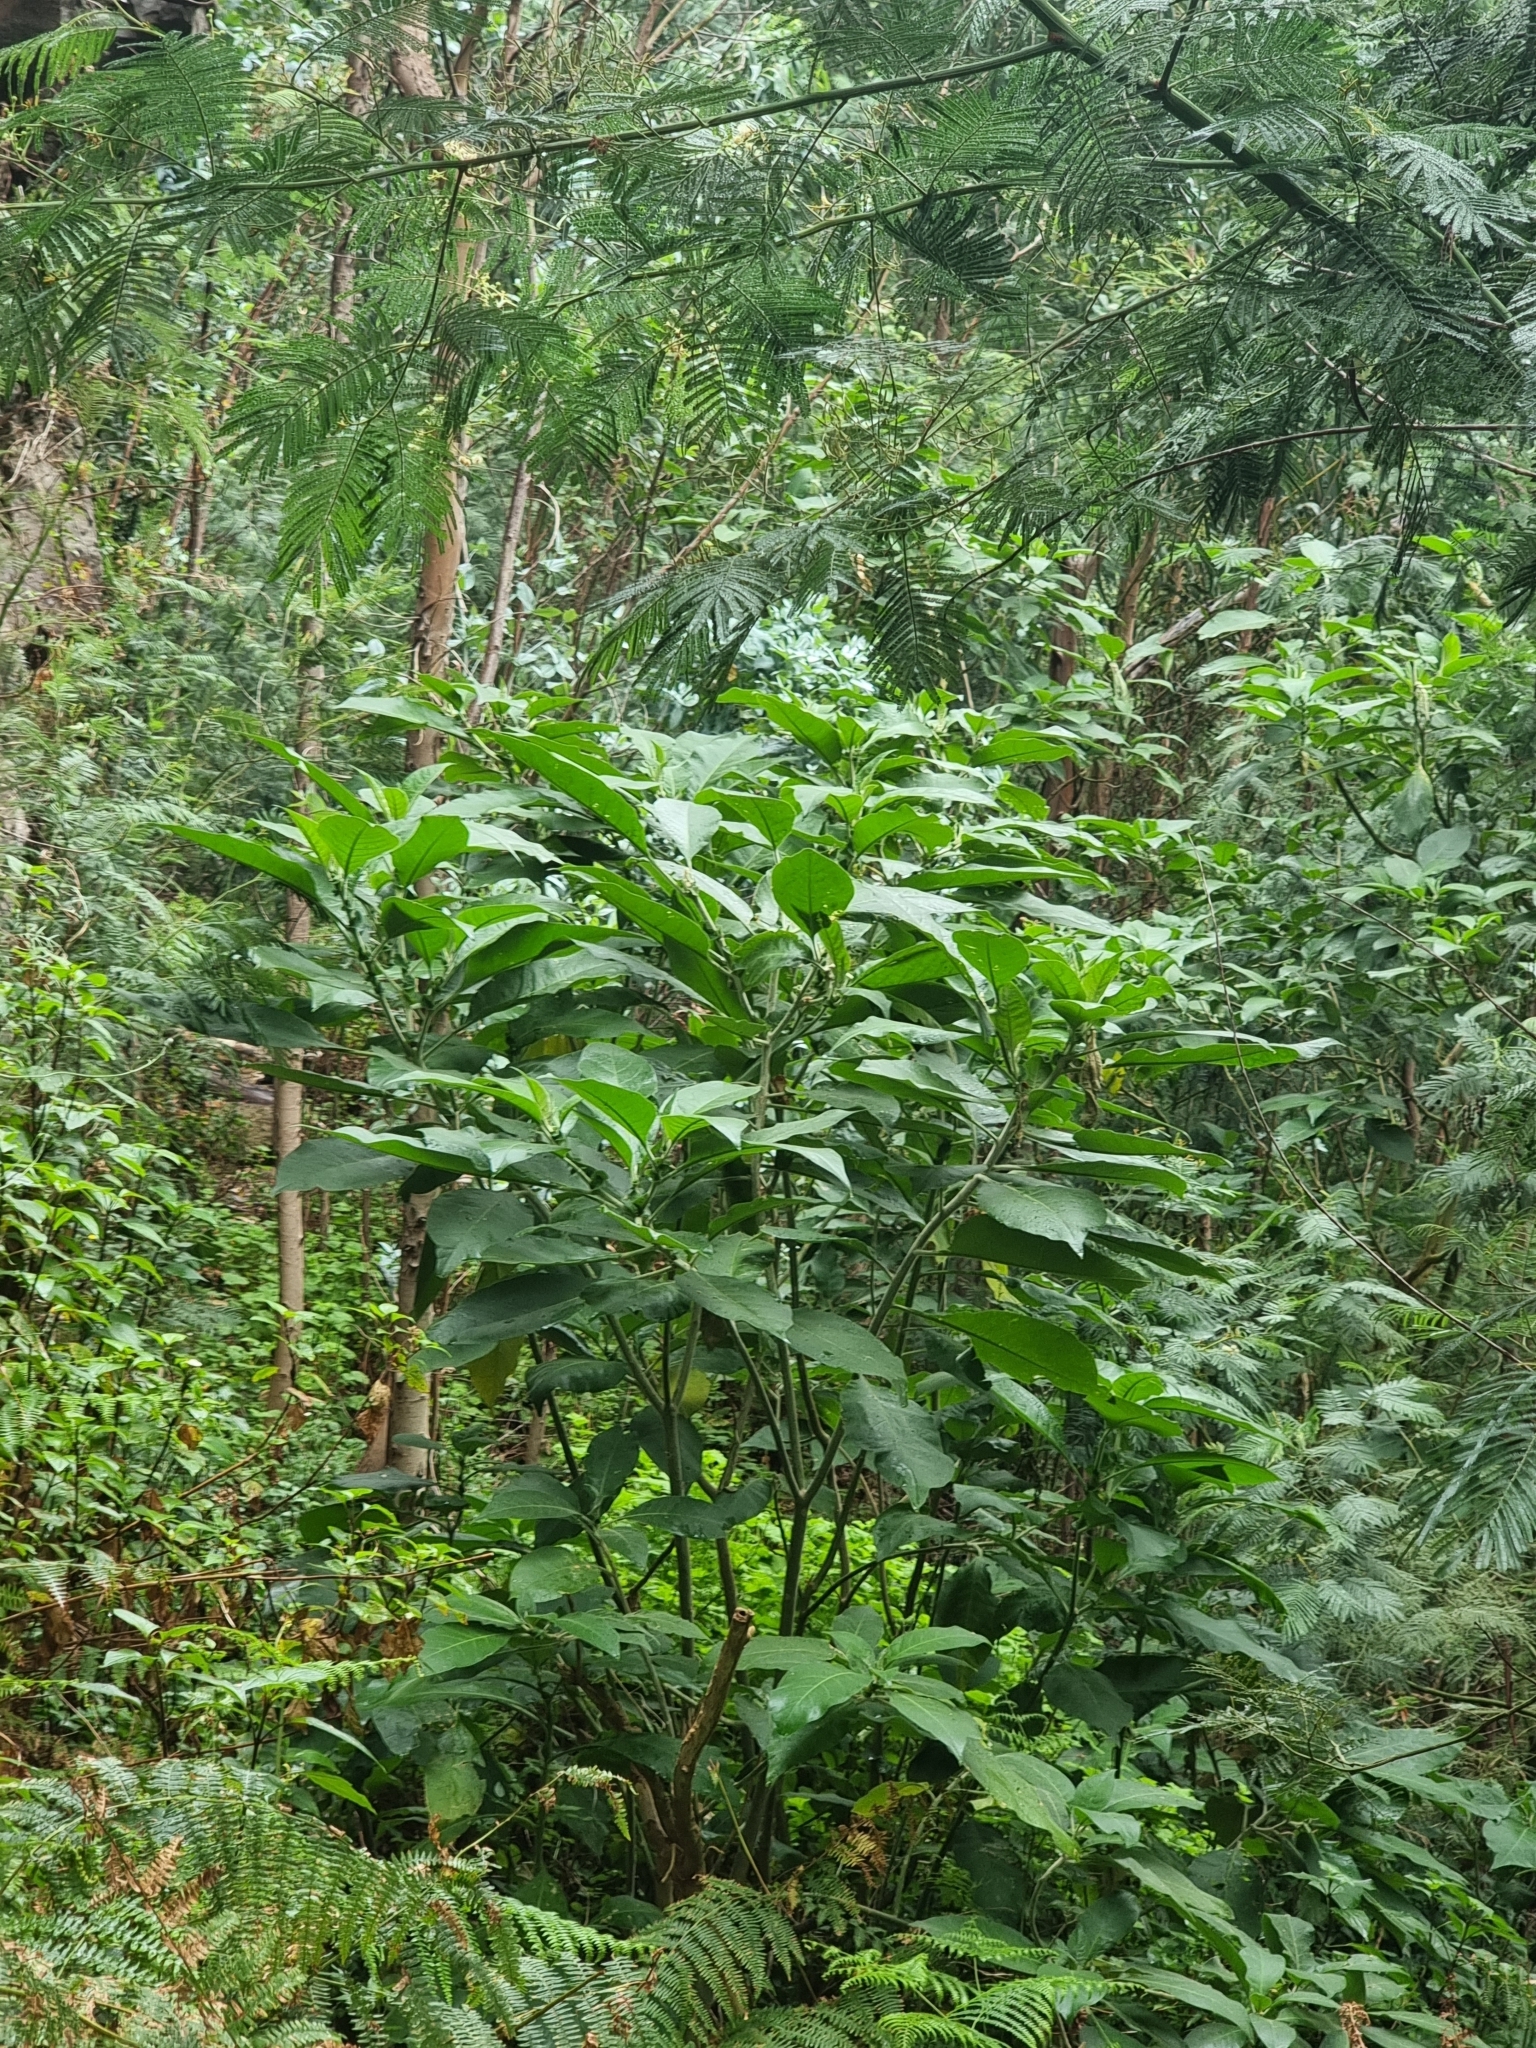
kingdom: Plantae
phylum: Tracheophyta
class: Magnoliopsida
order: Solanales
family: Solanaceae
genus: Solanum
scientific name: Solanum mauritianum
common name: Earleaf nightshade
